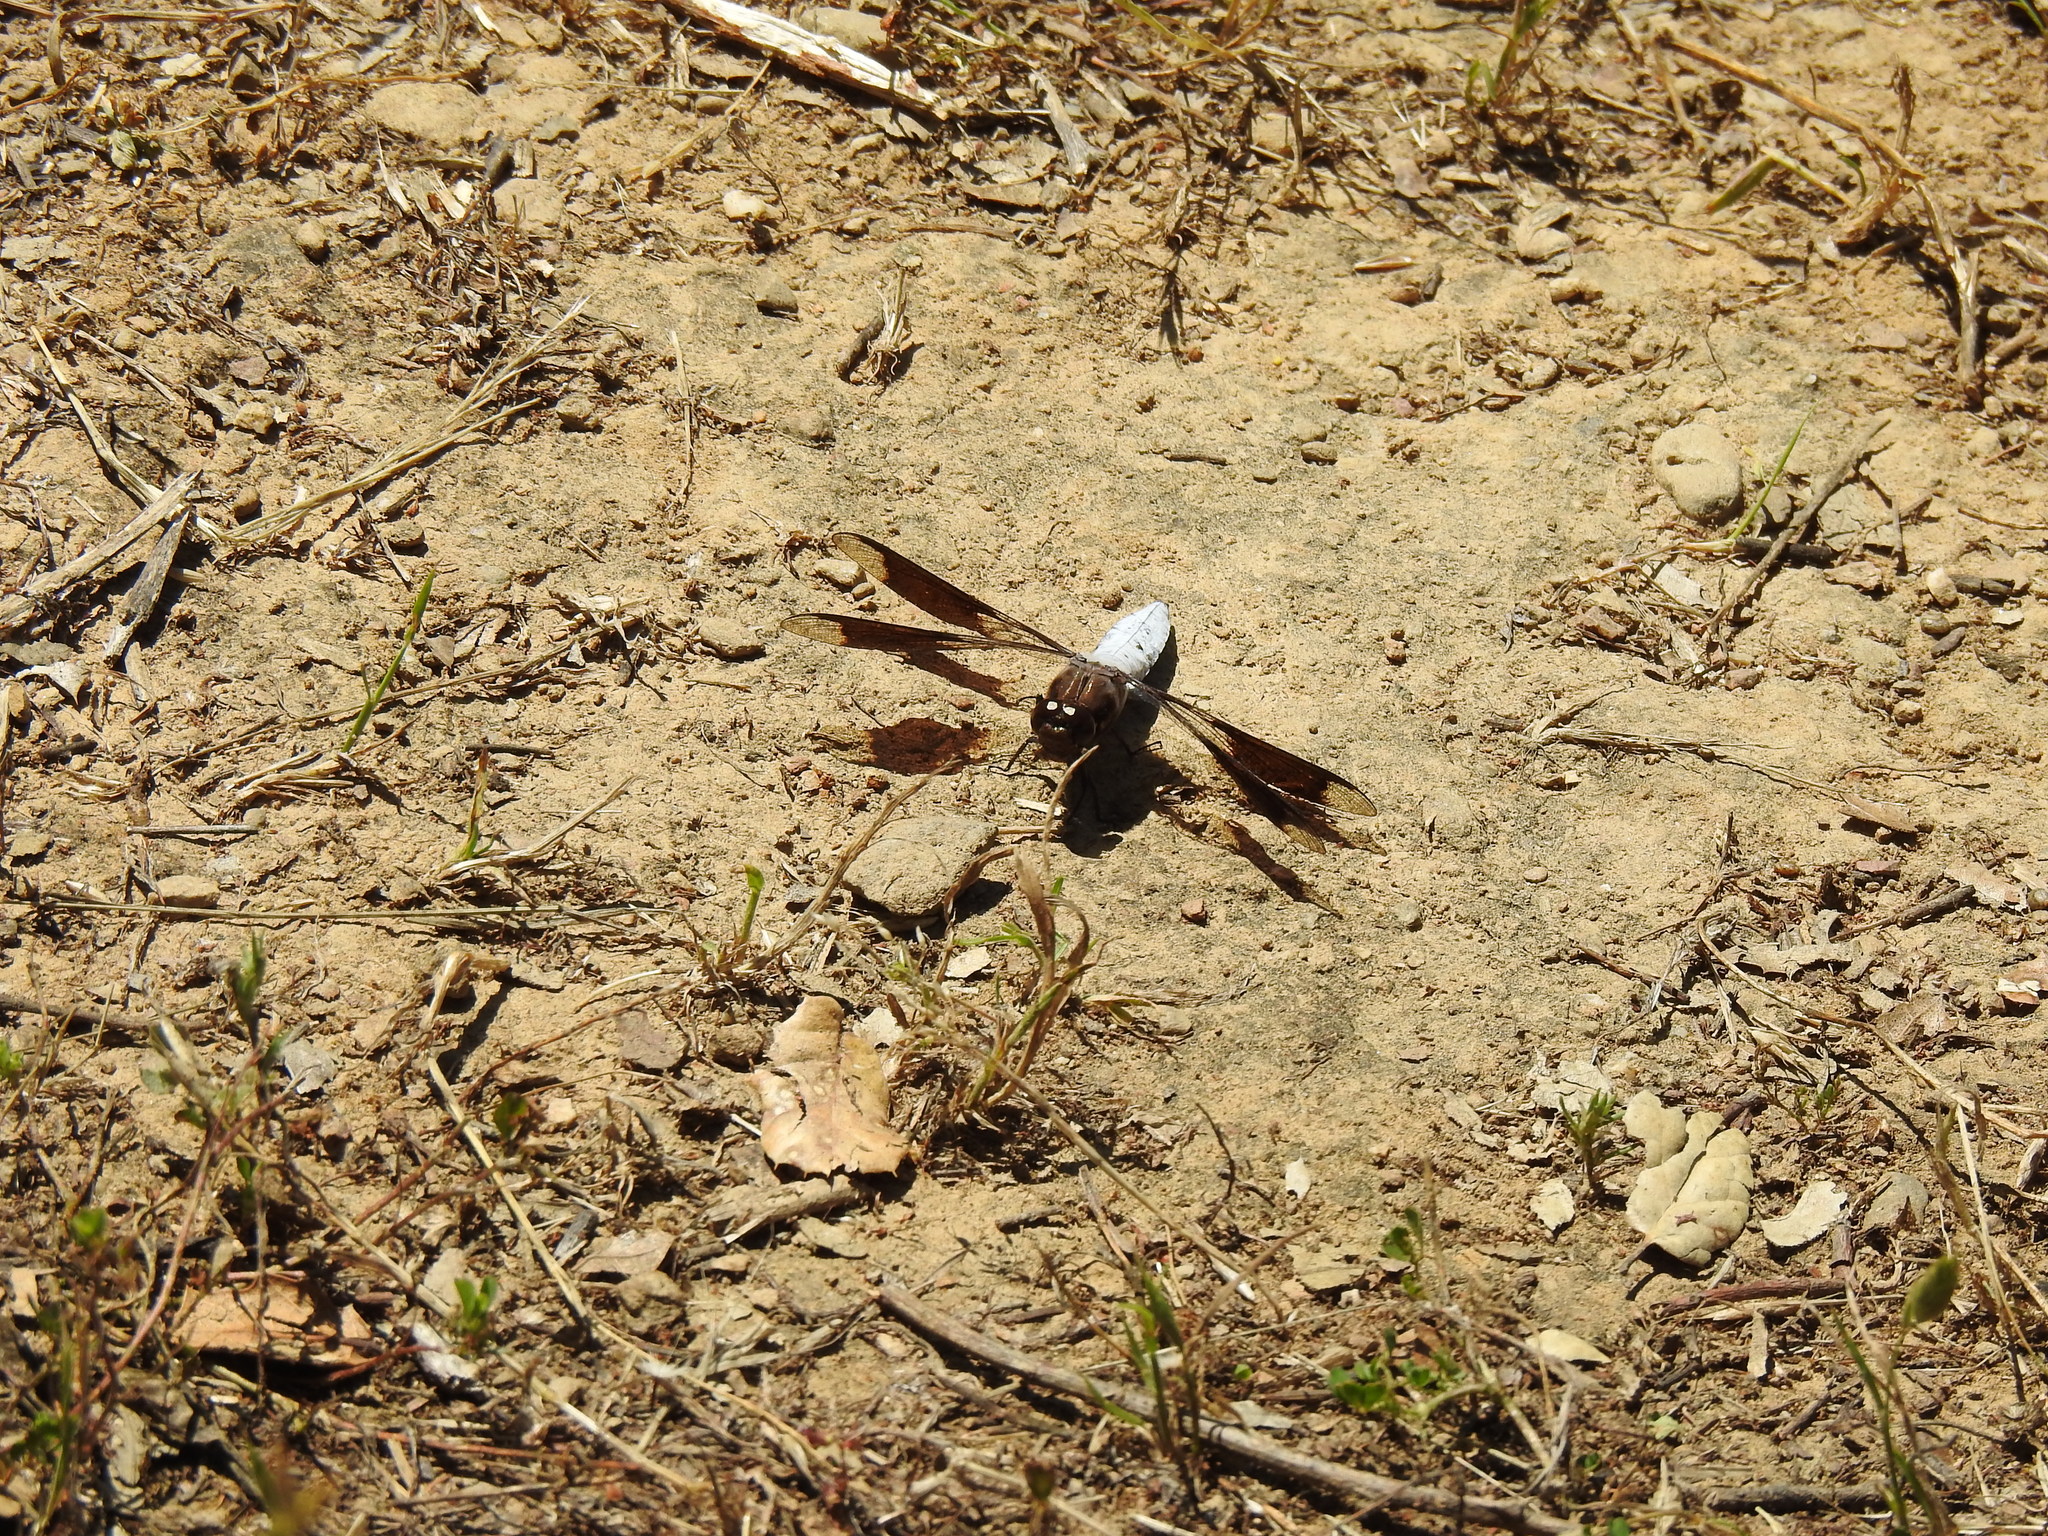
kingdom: Animalia
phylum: Arthropoda
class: Insecta
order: Odonata
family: Libellulidae
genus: Plathemis
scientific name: Plathemis lydia
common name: Common whitetail
